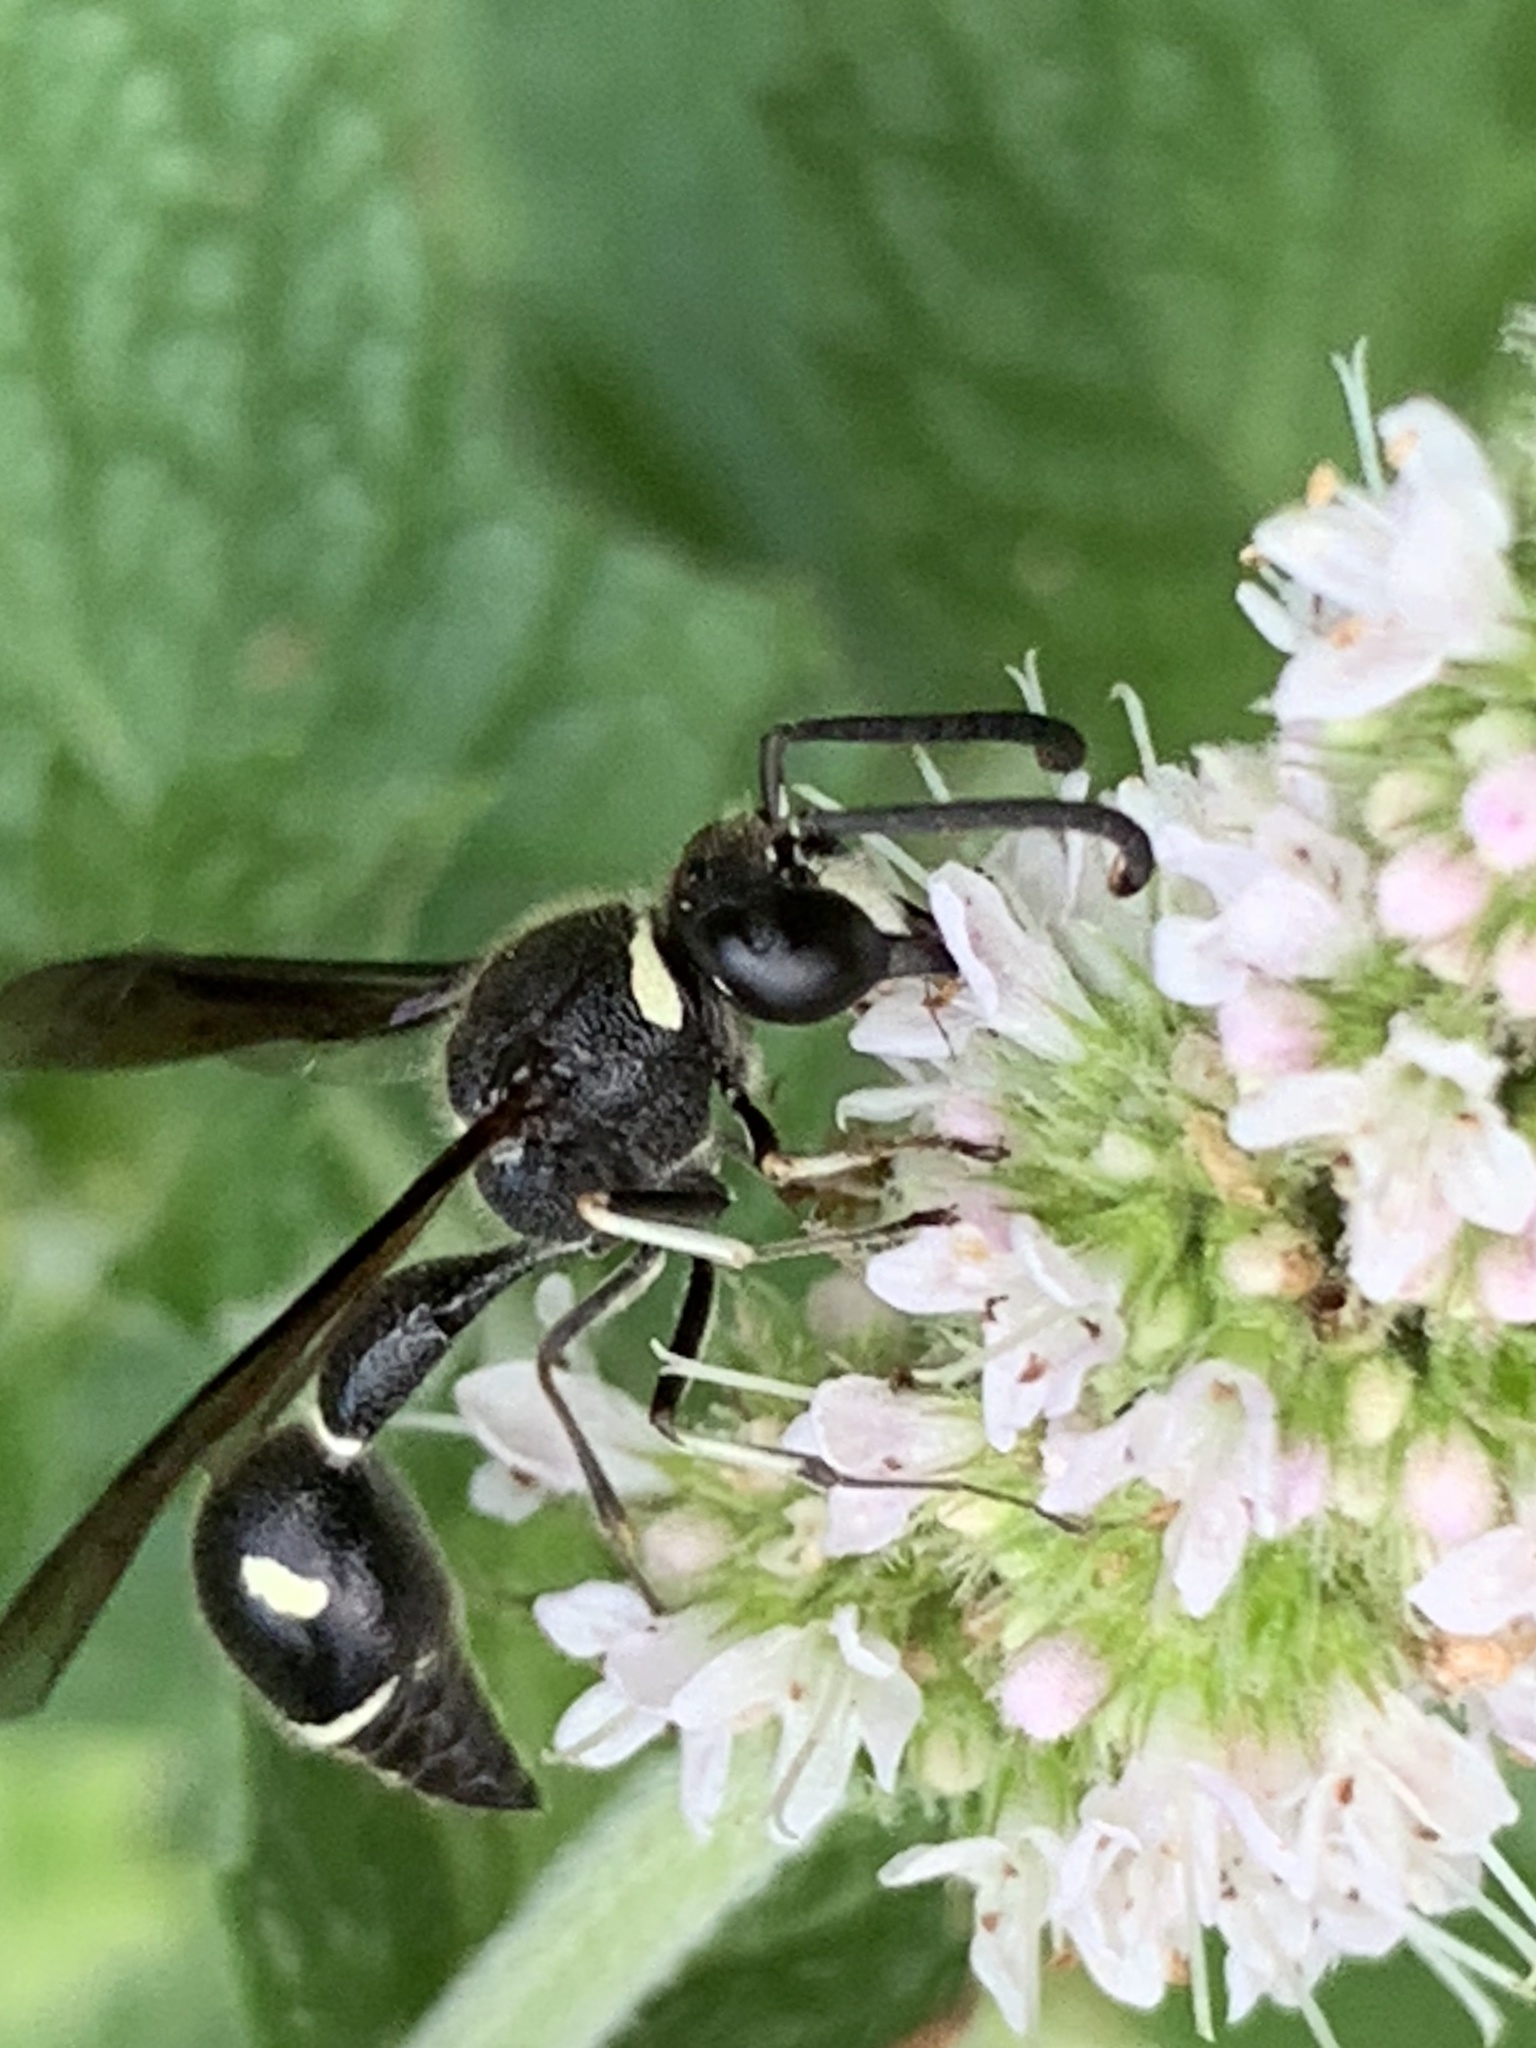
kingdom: Animalia
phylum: Arthropoda
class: Insecta
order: Hymenoptera
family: Vespidae
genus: Eumenes
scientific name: Eumenes fraternus
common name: Fraternal potter wasp
